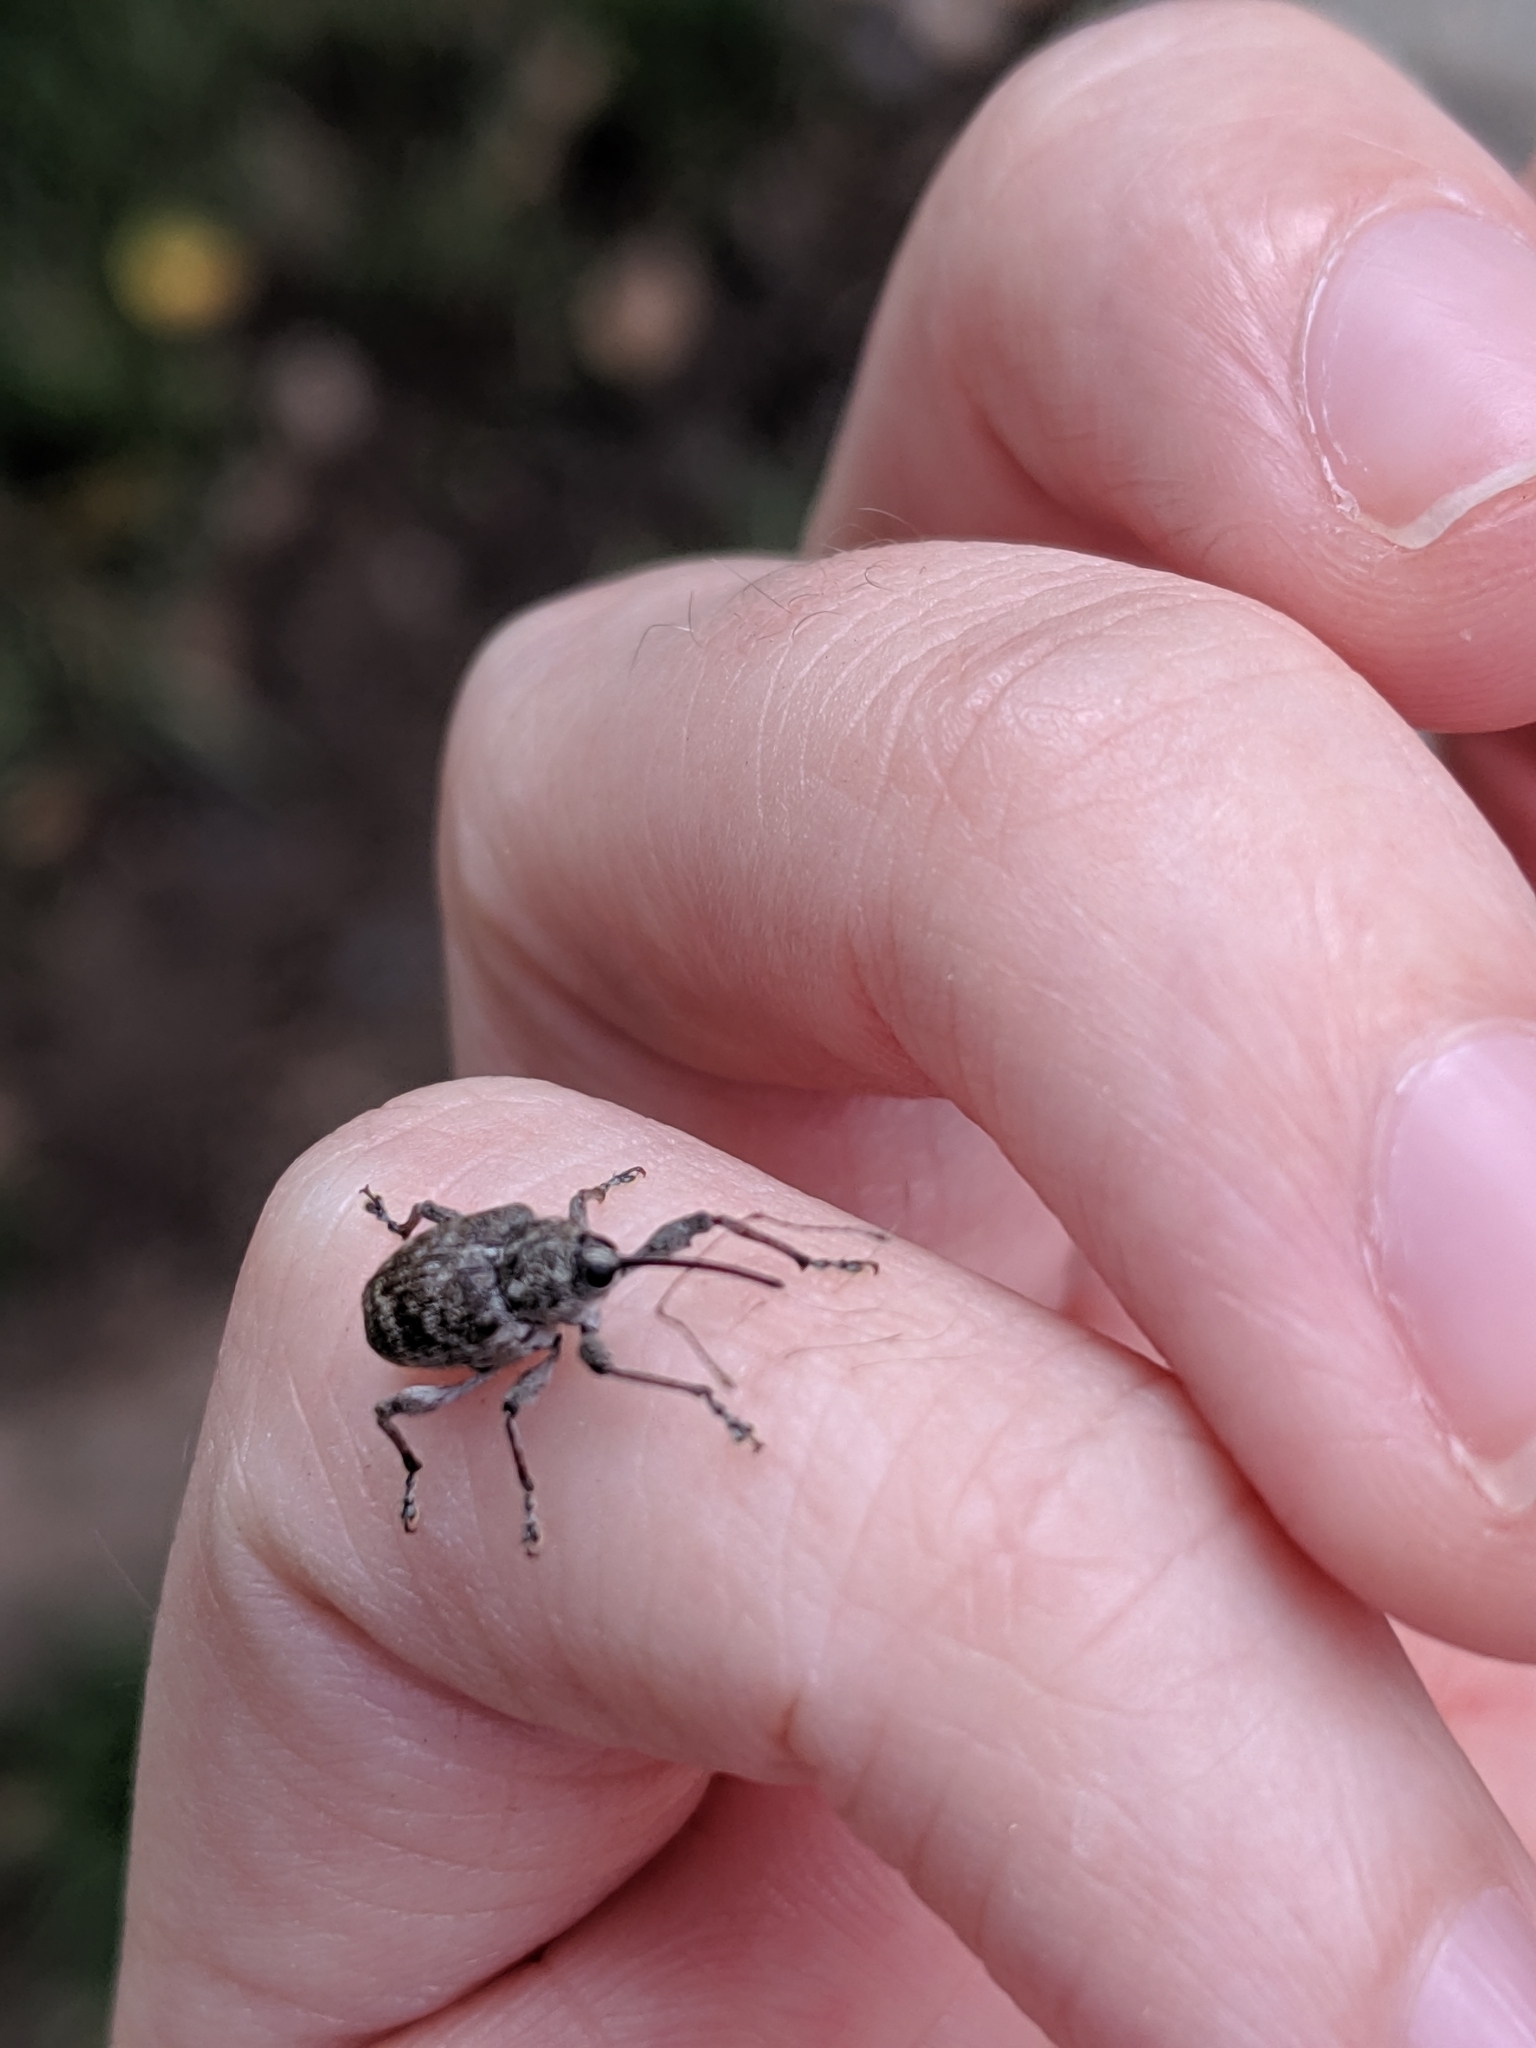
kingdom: Animalia
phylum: Arthropoda
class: Insecta
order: Coleoptera
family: Curculionidae
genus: Curculio
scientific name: Curculio
